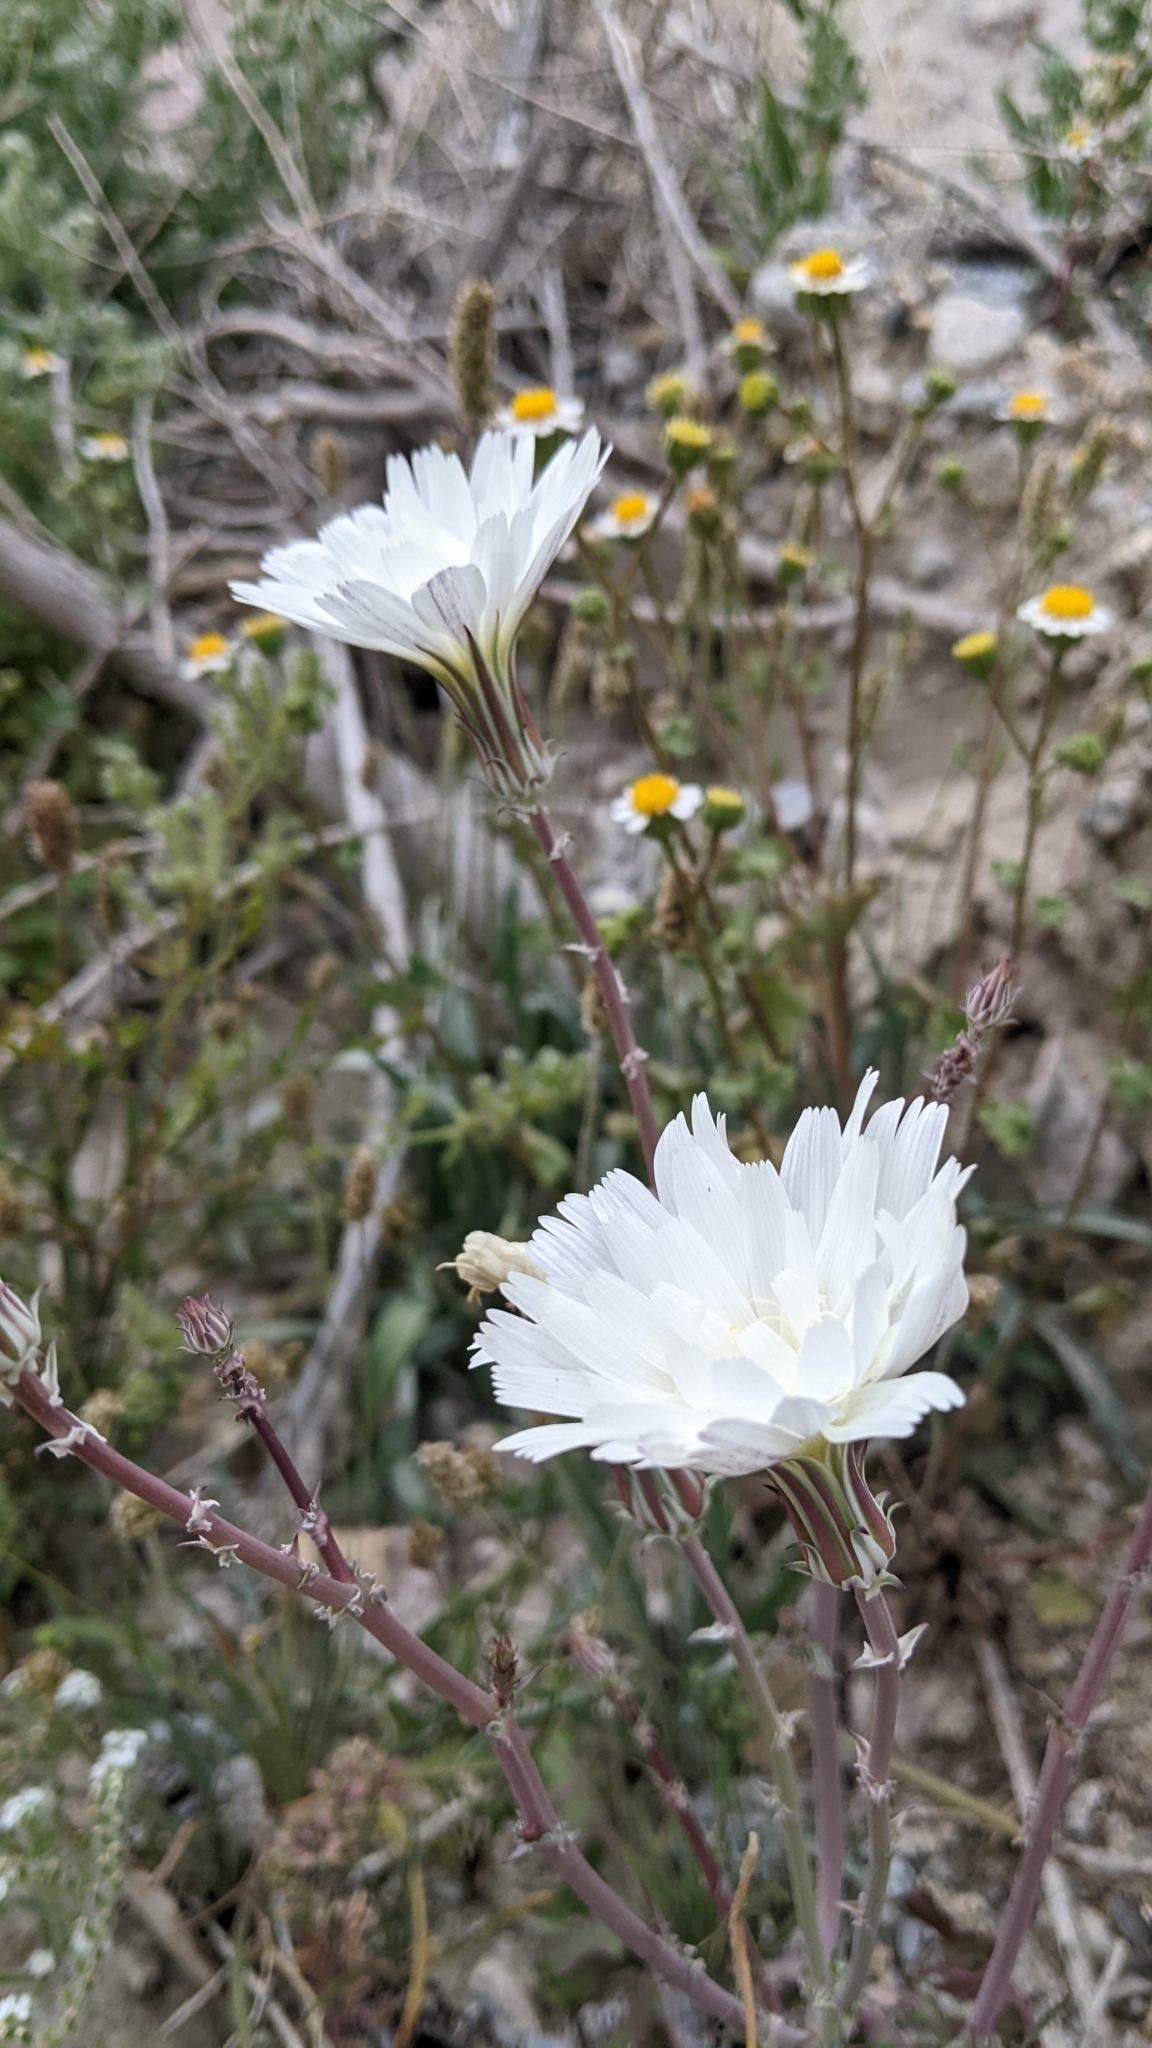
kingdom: Plantae
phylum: Tracheophyta
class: Magnoliopsida
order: Asterales
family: Asteraceae
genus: Rafinesquia
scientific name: Rafinesquia neomexicana
